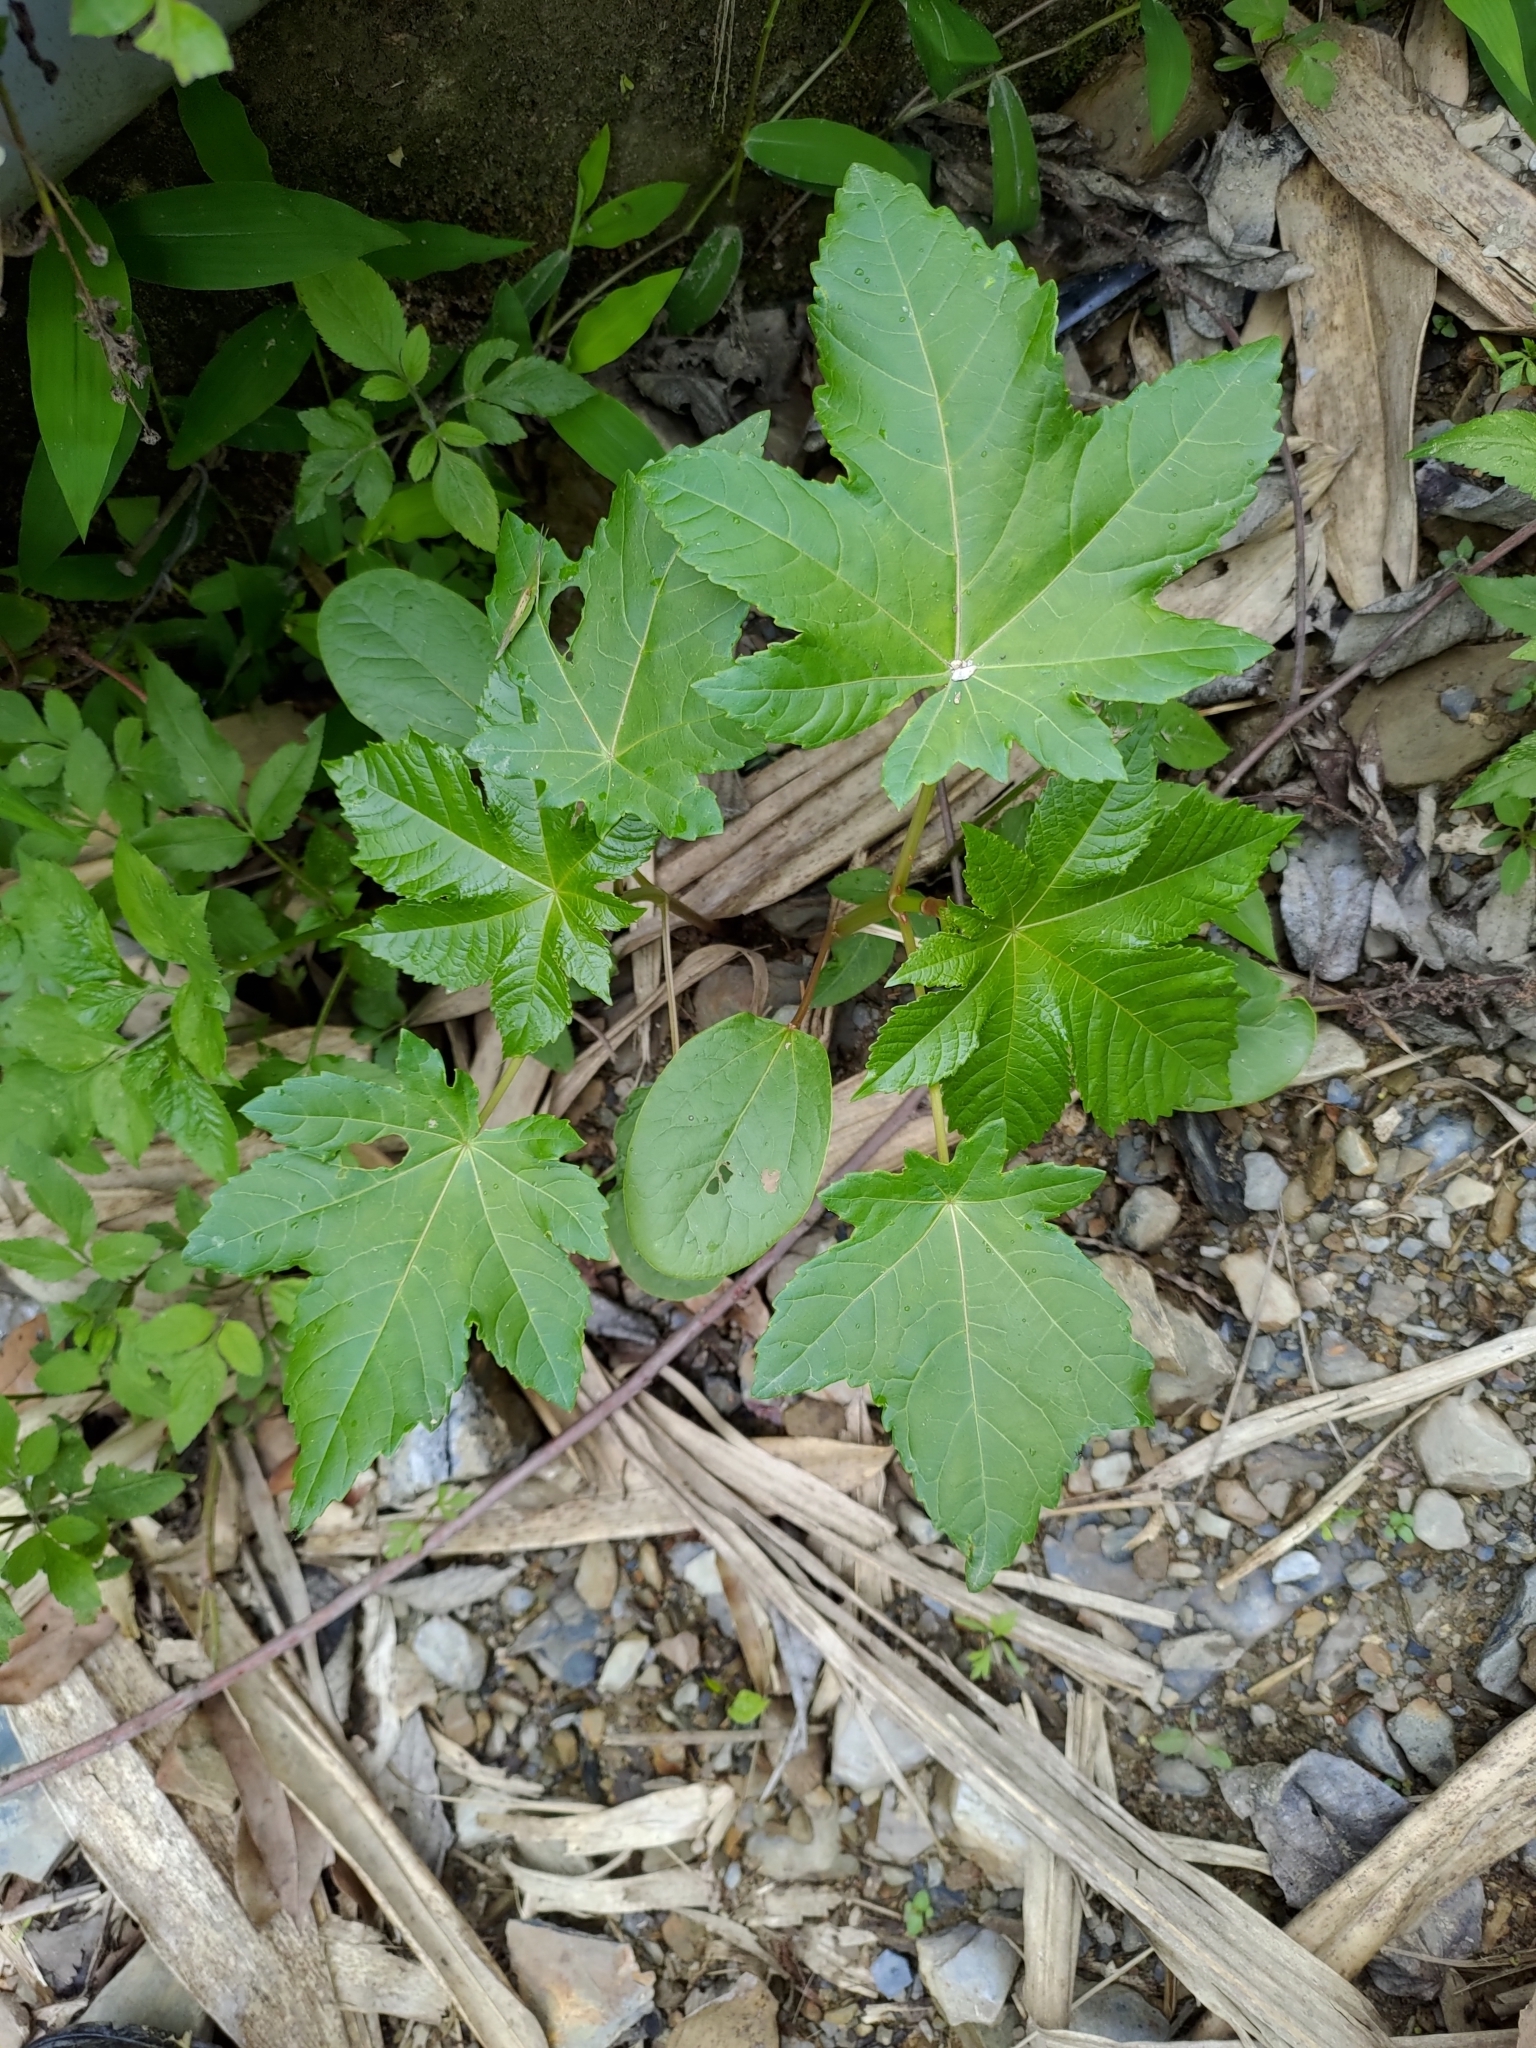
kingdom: Plantae
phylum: Tracheophyta
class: Magnoliopsida
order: Malpighiales
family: Euphorbiaceae
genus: Ricinus
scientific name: Ricinus communis
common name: Castor-oil-plant
